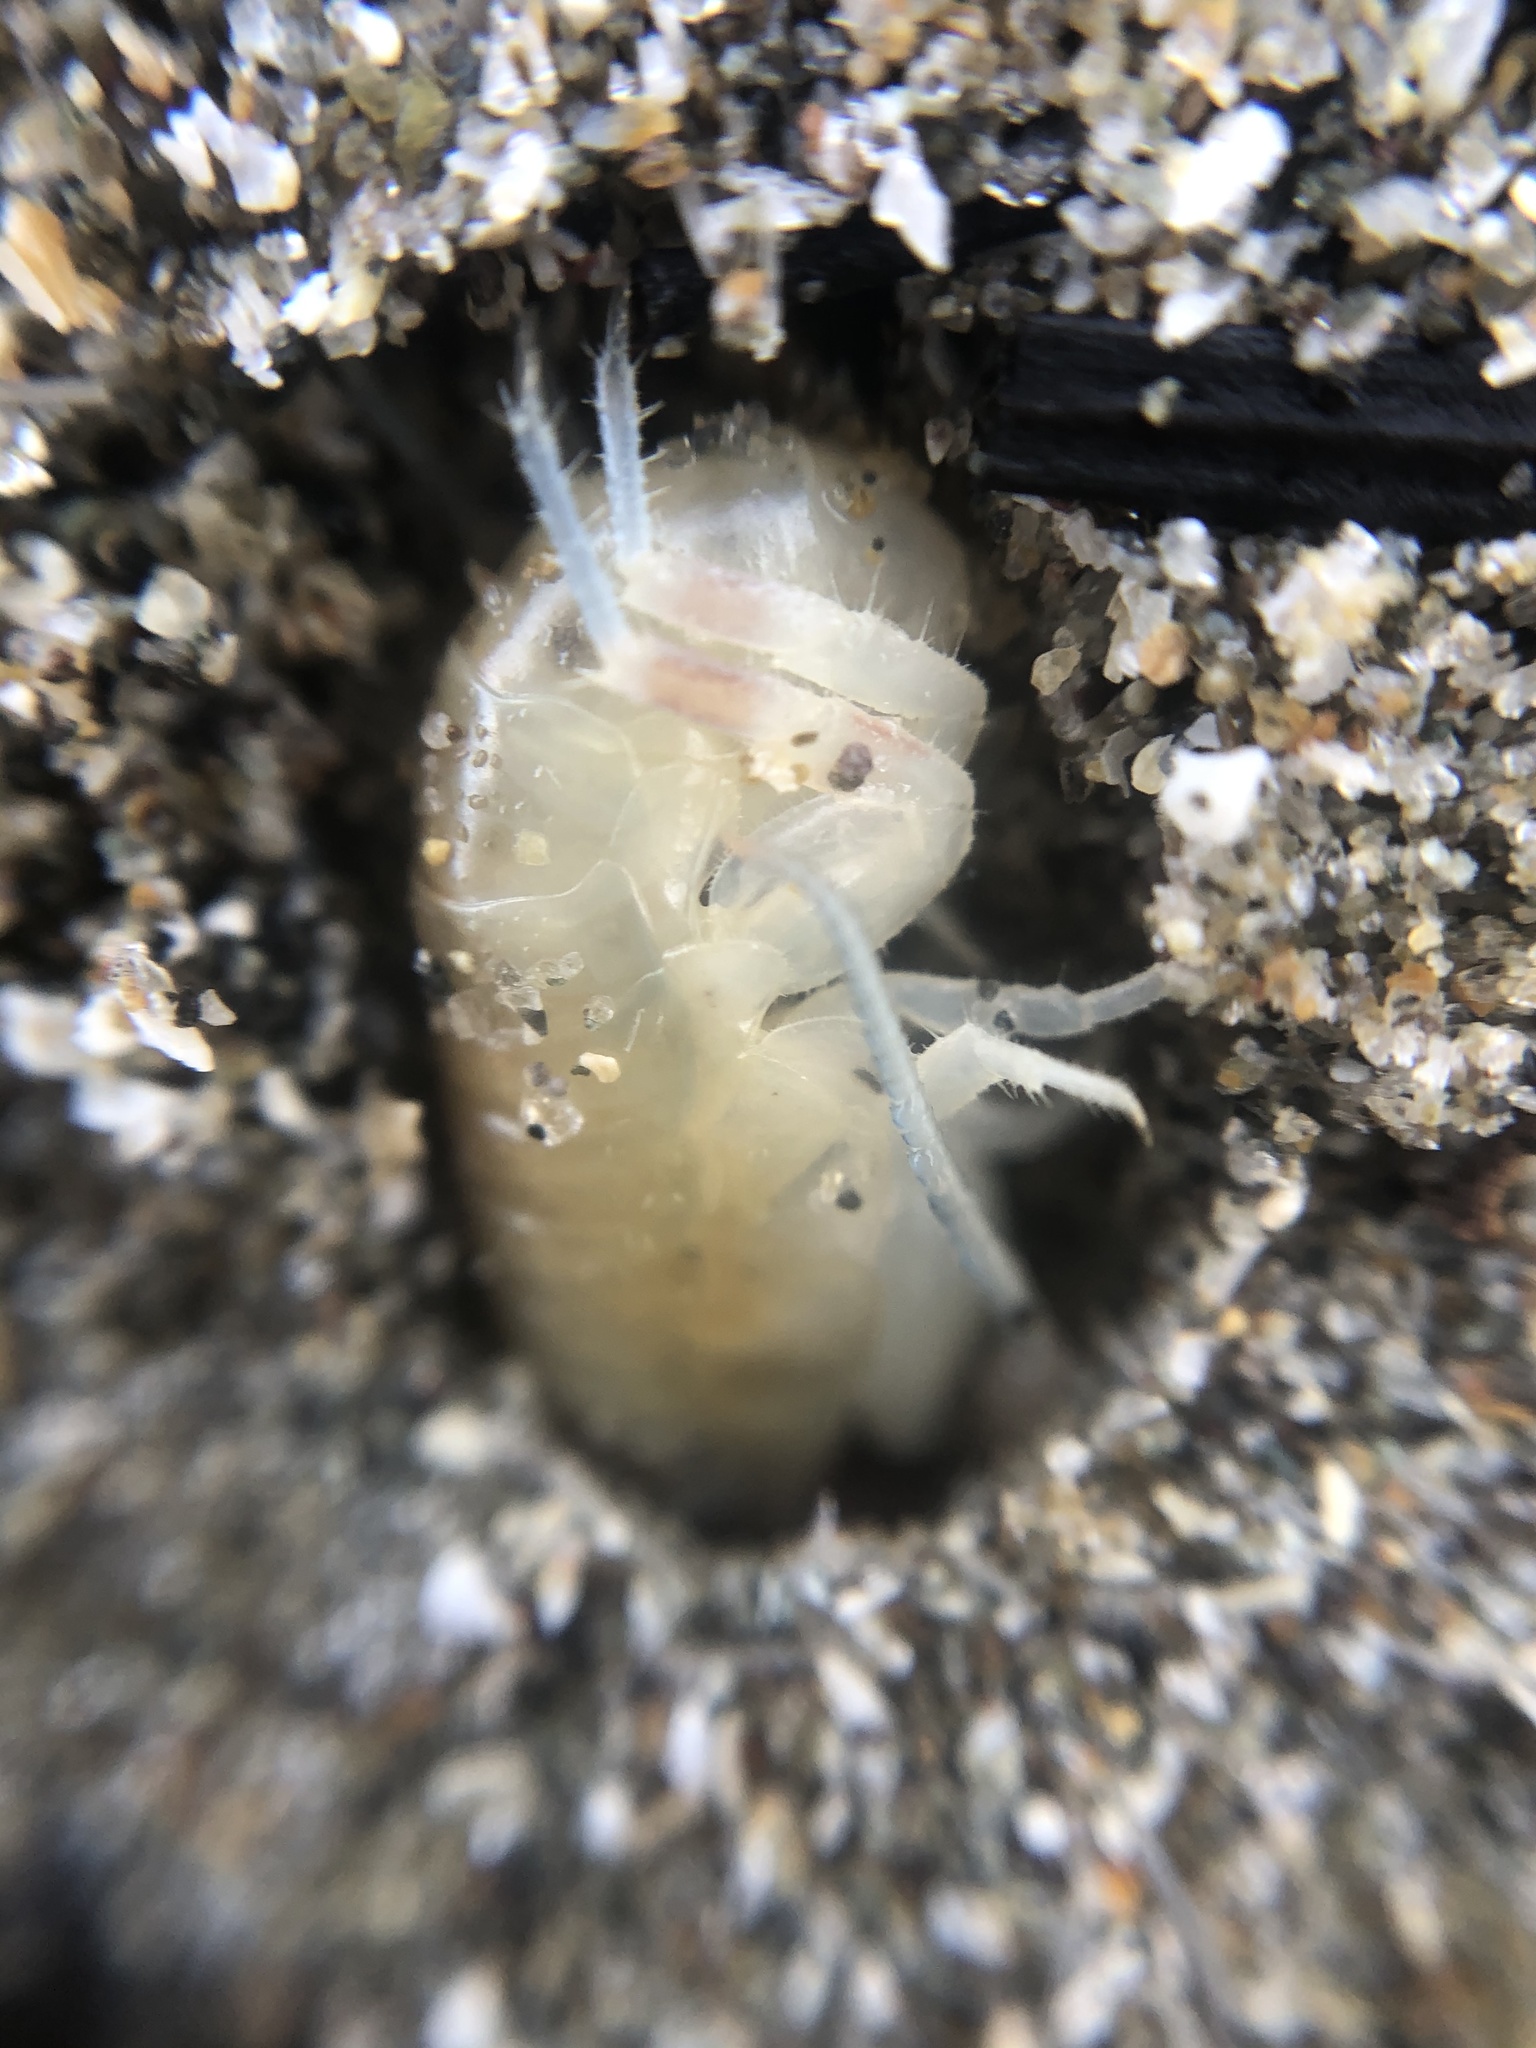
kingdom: Animalia
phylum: Arthropoda
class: Malacostraca
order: Amphipoda
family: Talitridae
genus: Megalorchestia
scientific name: Megalorchestia californiana
